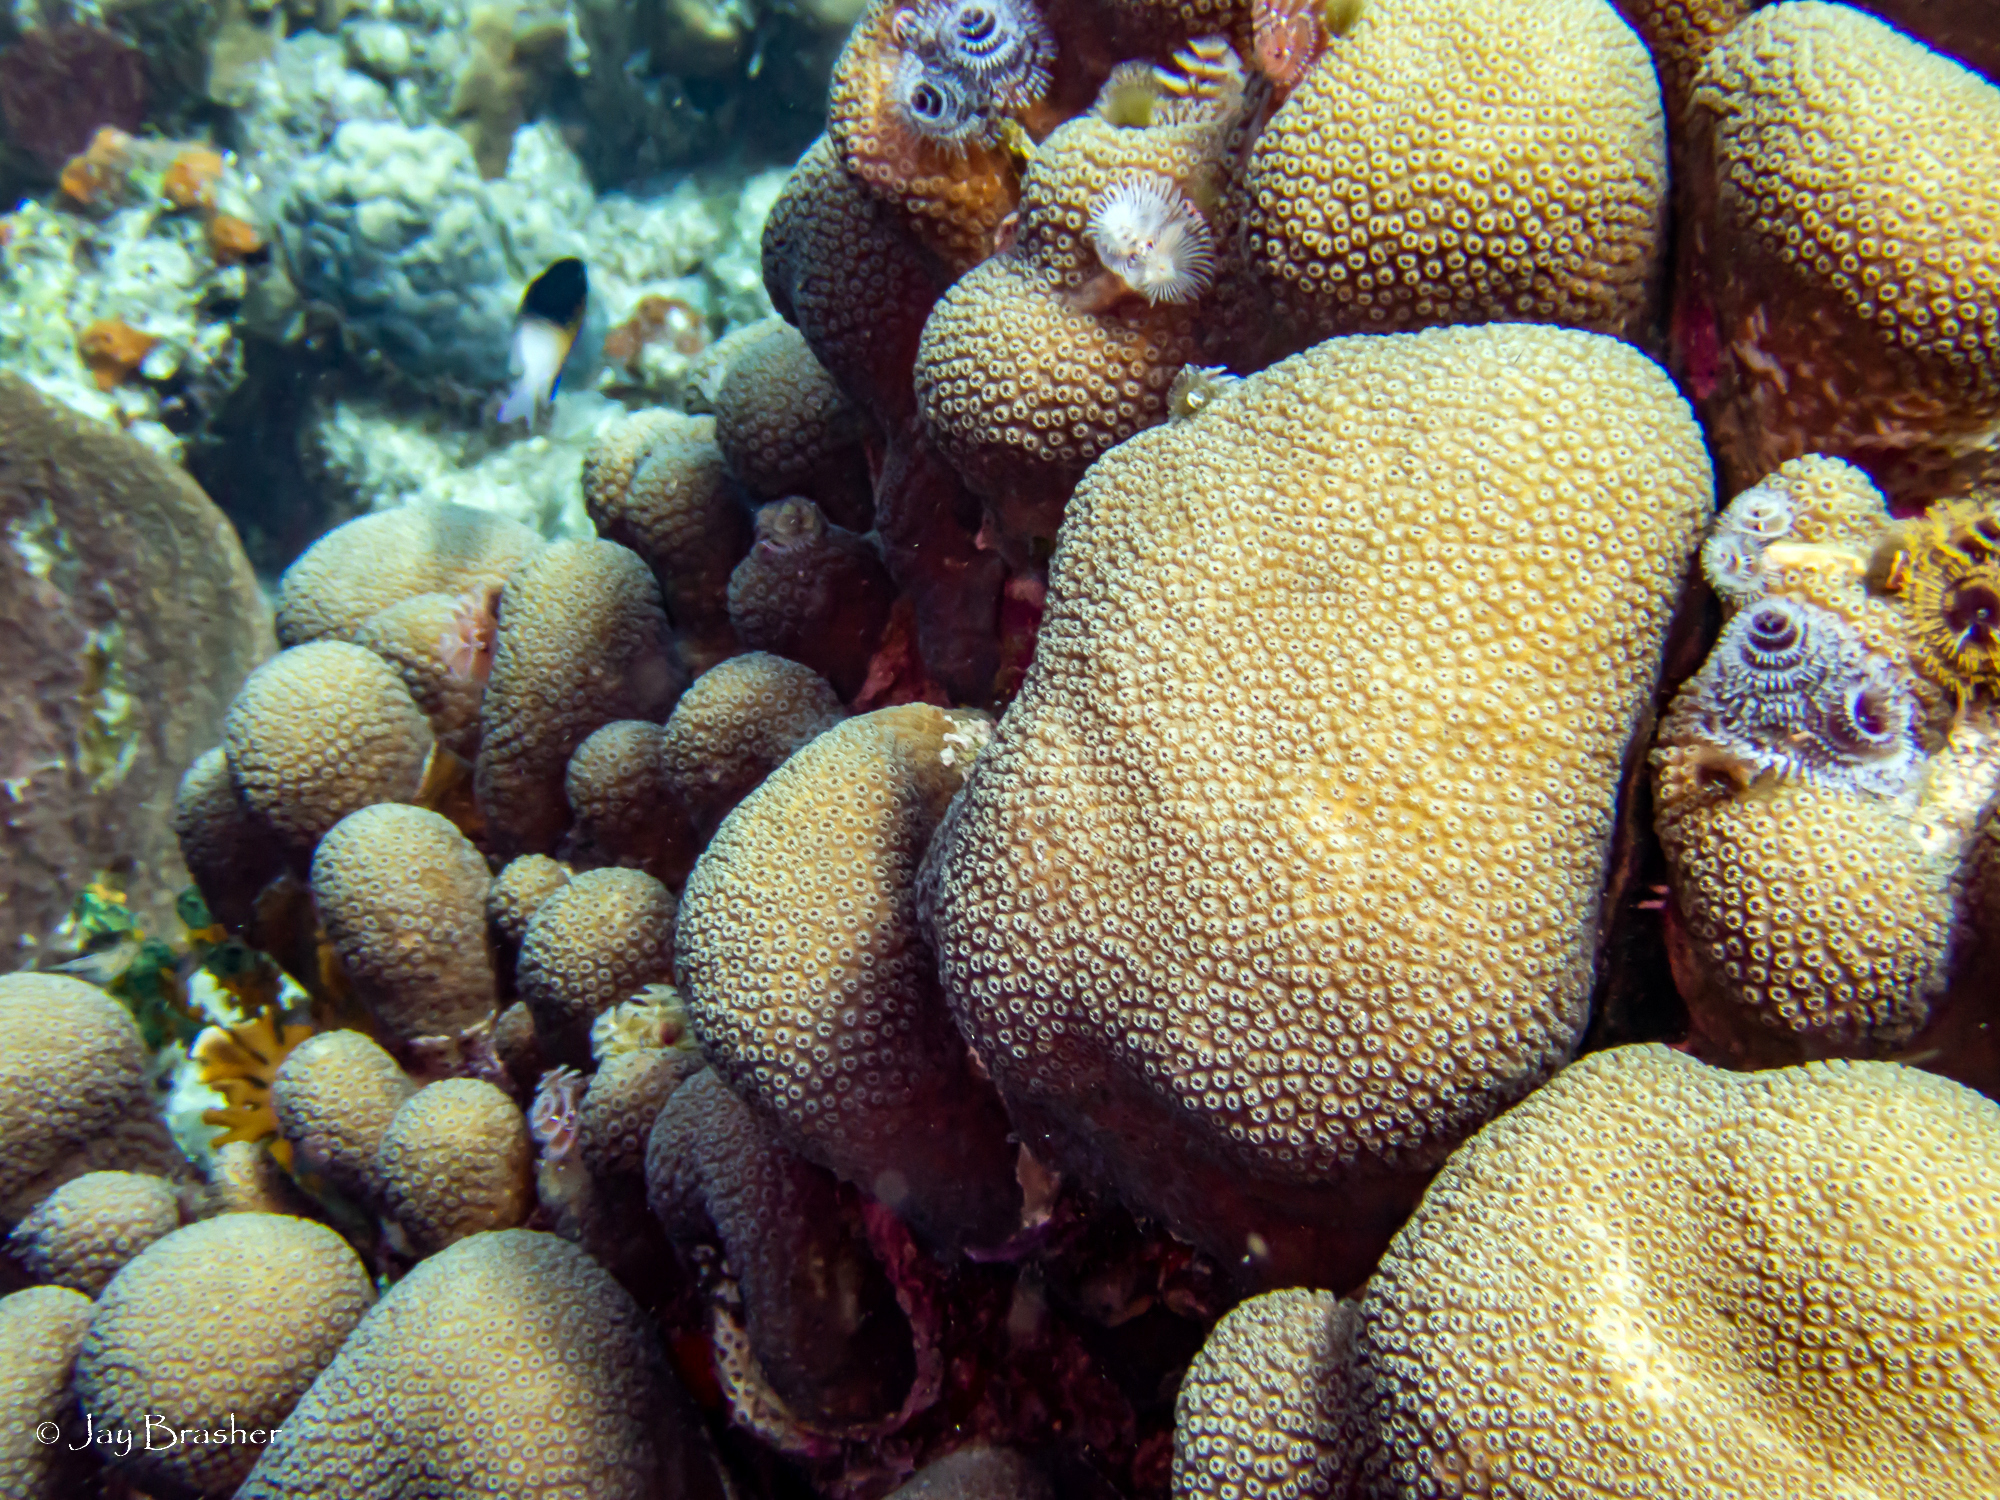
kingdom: Animalia
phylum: Cnidaria
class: Anthozoa
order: Scleractinia
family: Merulinidae
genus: Orbicella
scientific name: Orbicella annularis
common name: Boulder star coral
